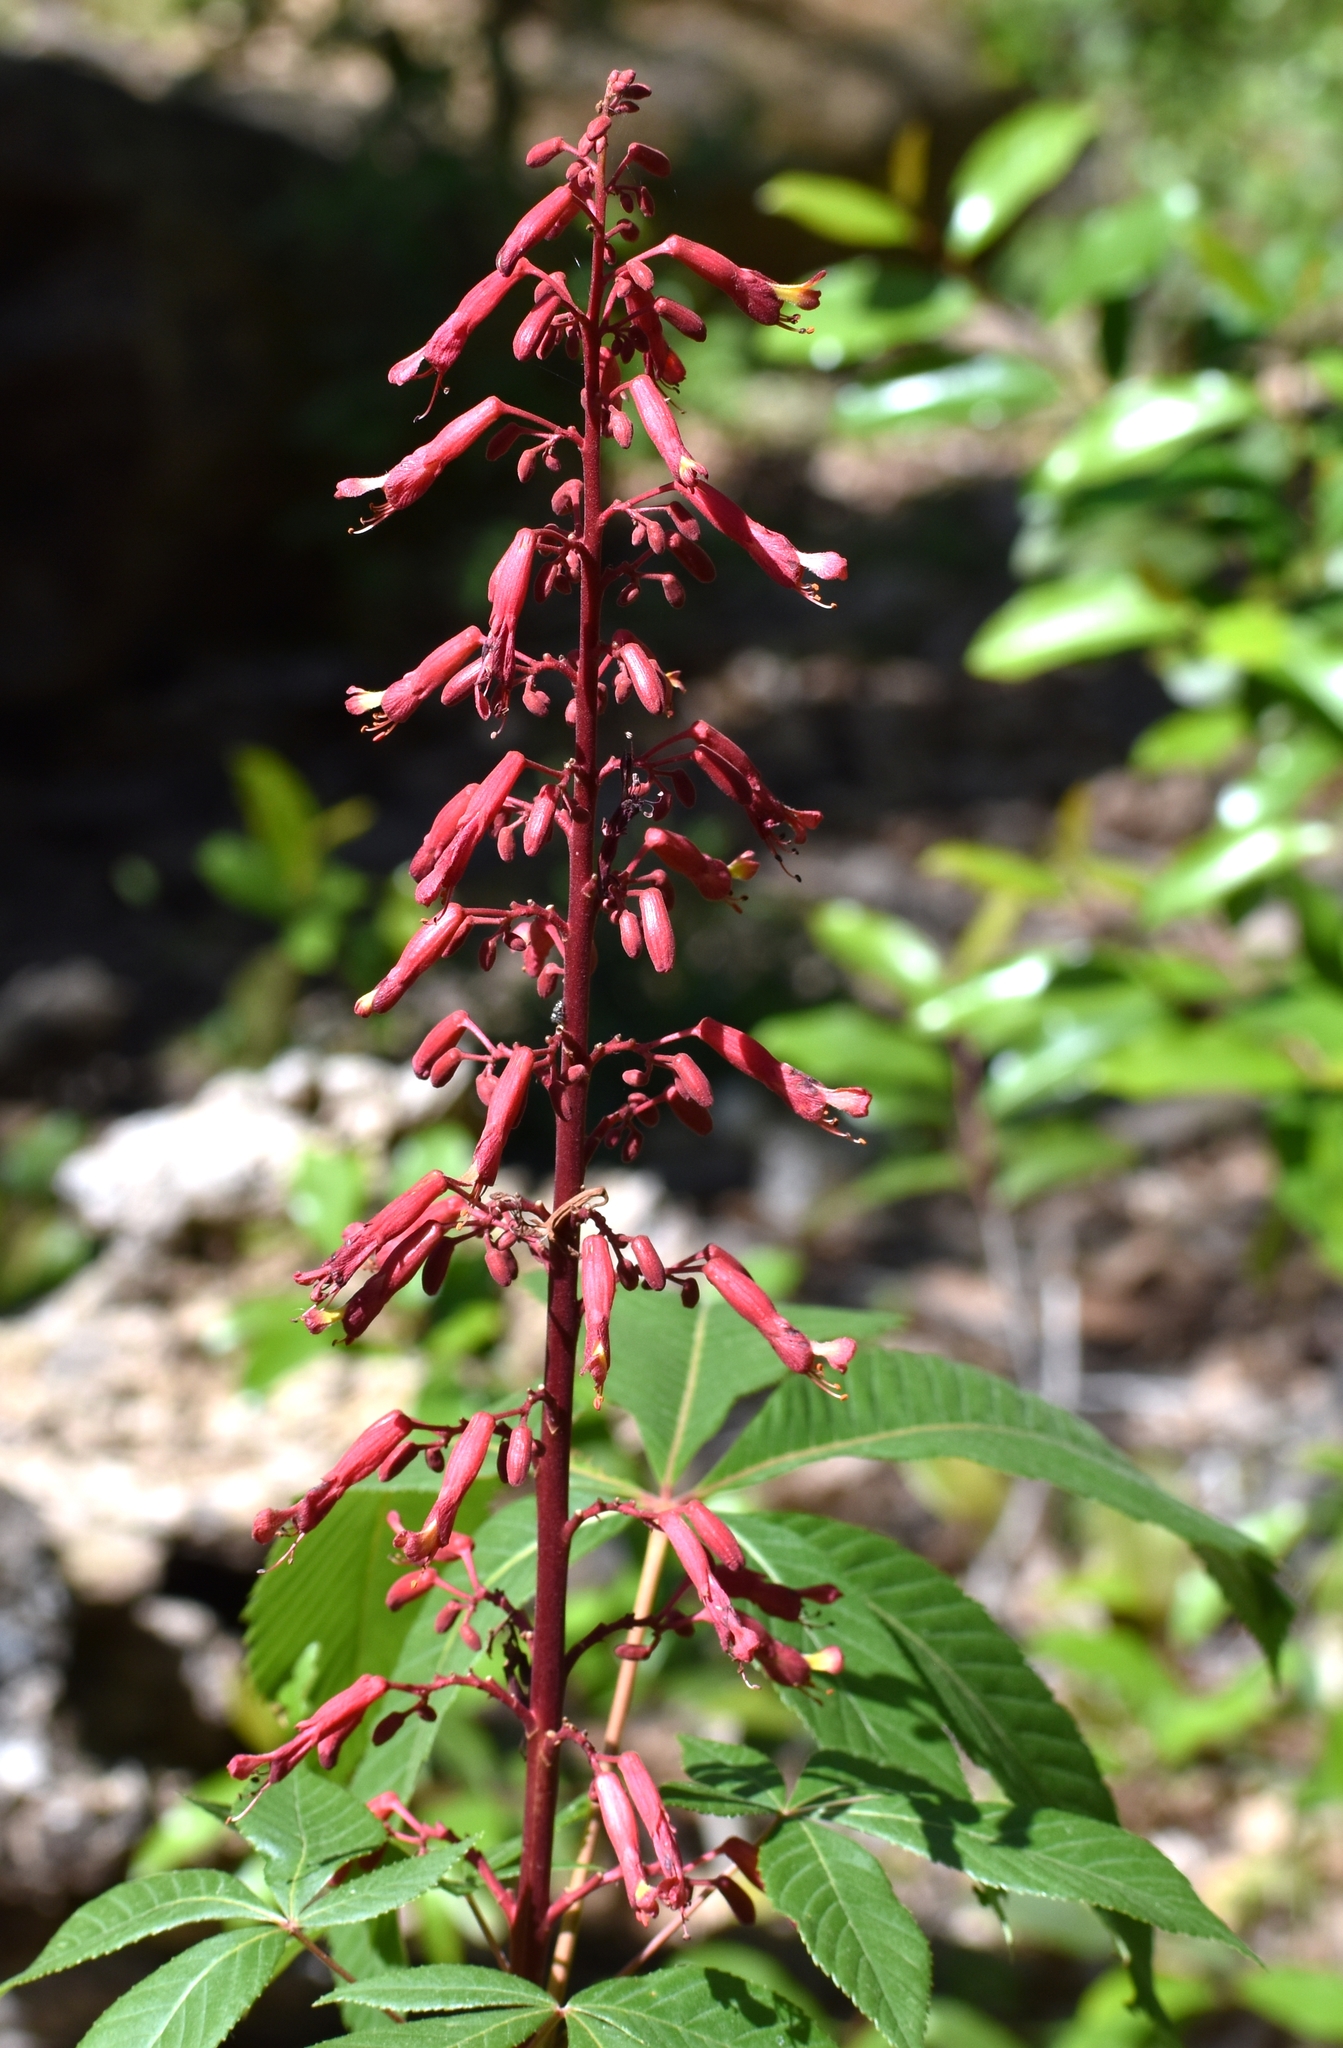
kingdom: Plantae
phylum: Tracheophyta
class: Magnoliopsida
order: Sapindales
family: Sapindaceae
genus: Aesculus
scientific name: Aesculus pavia
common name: Red buckeye
